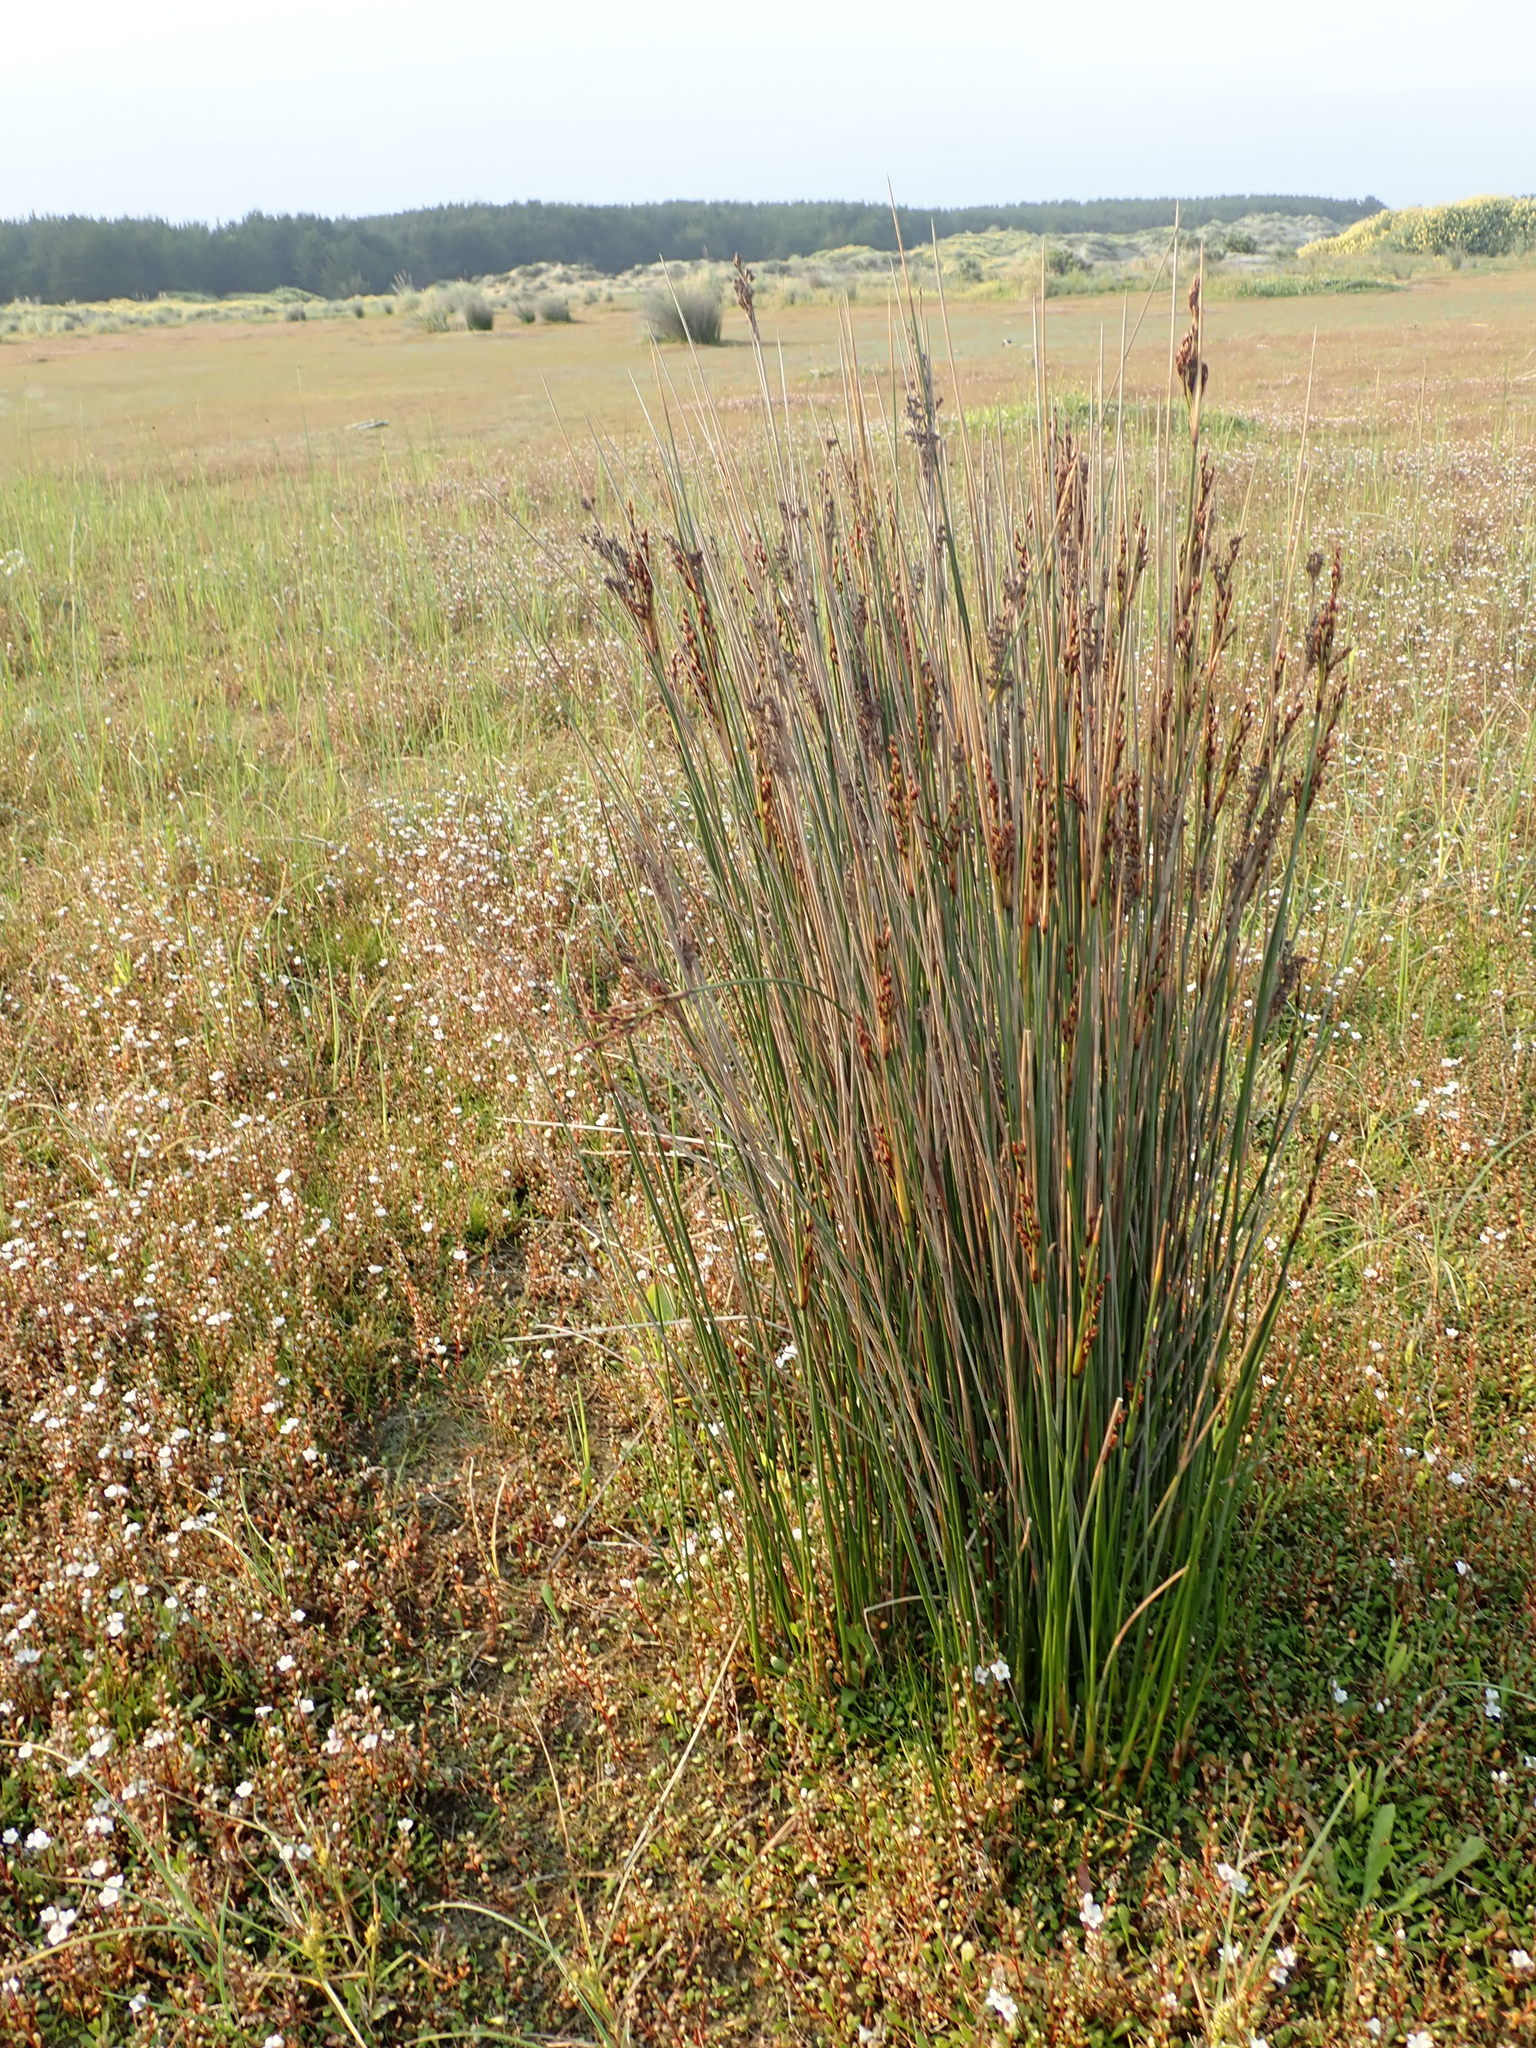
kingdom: Plantae
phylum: Tracheophyta
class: Liliopsida
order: Poales
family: Juncaceae
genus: Juncus
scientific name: Juncus kraussii
